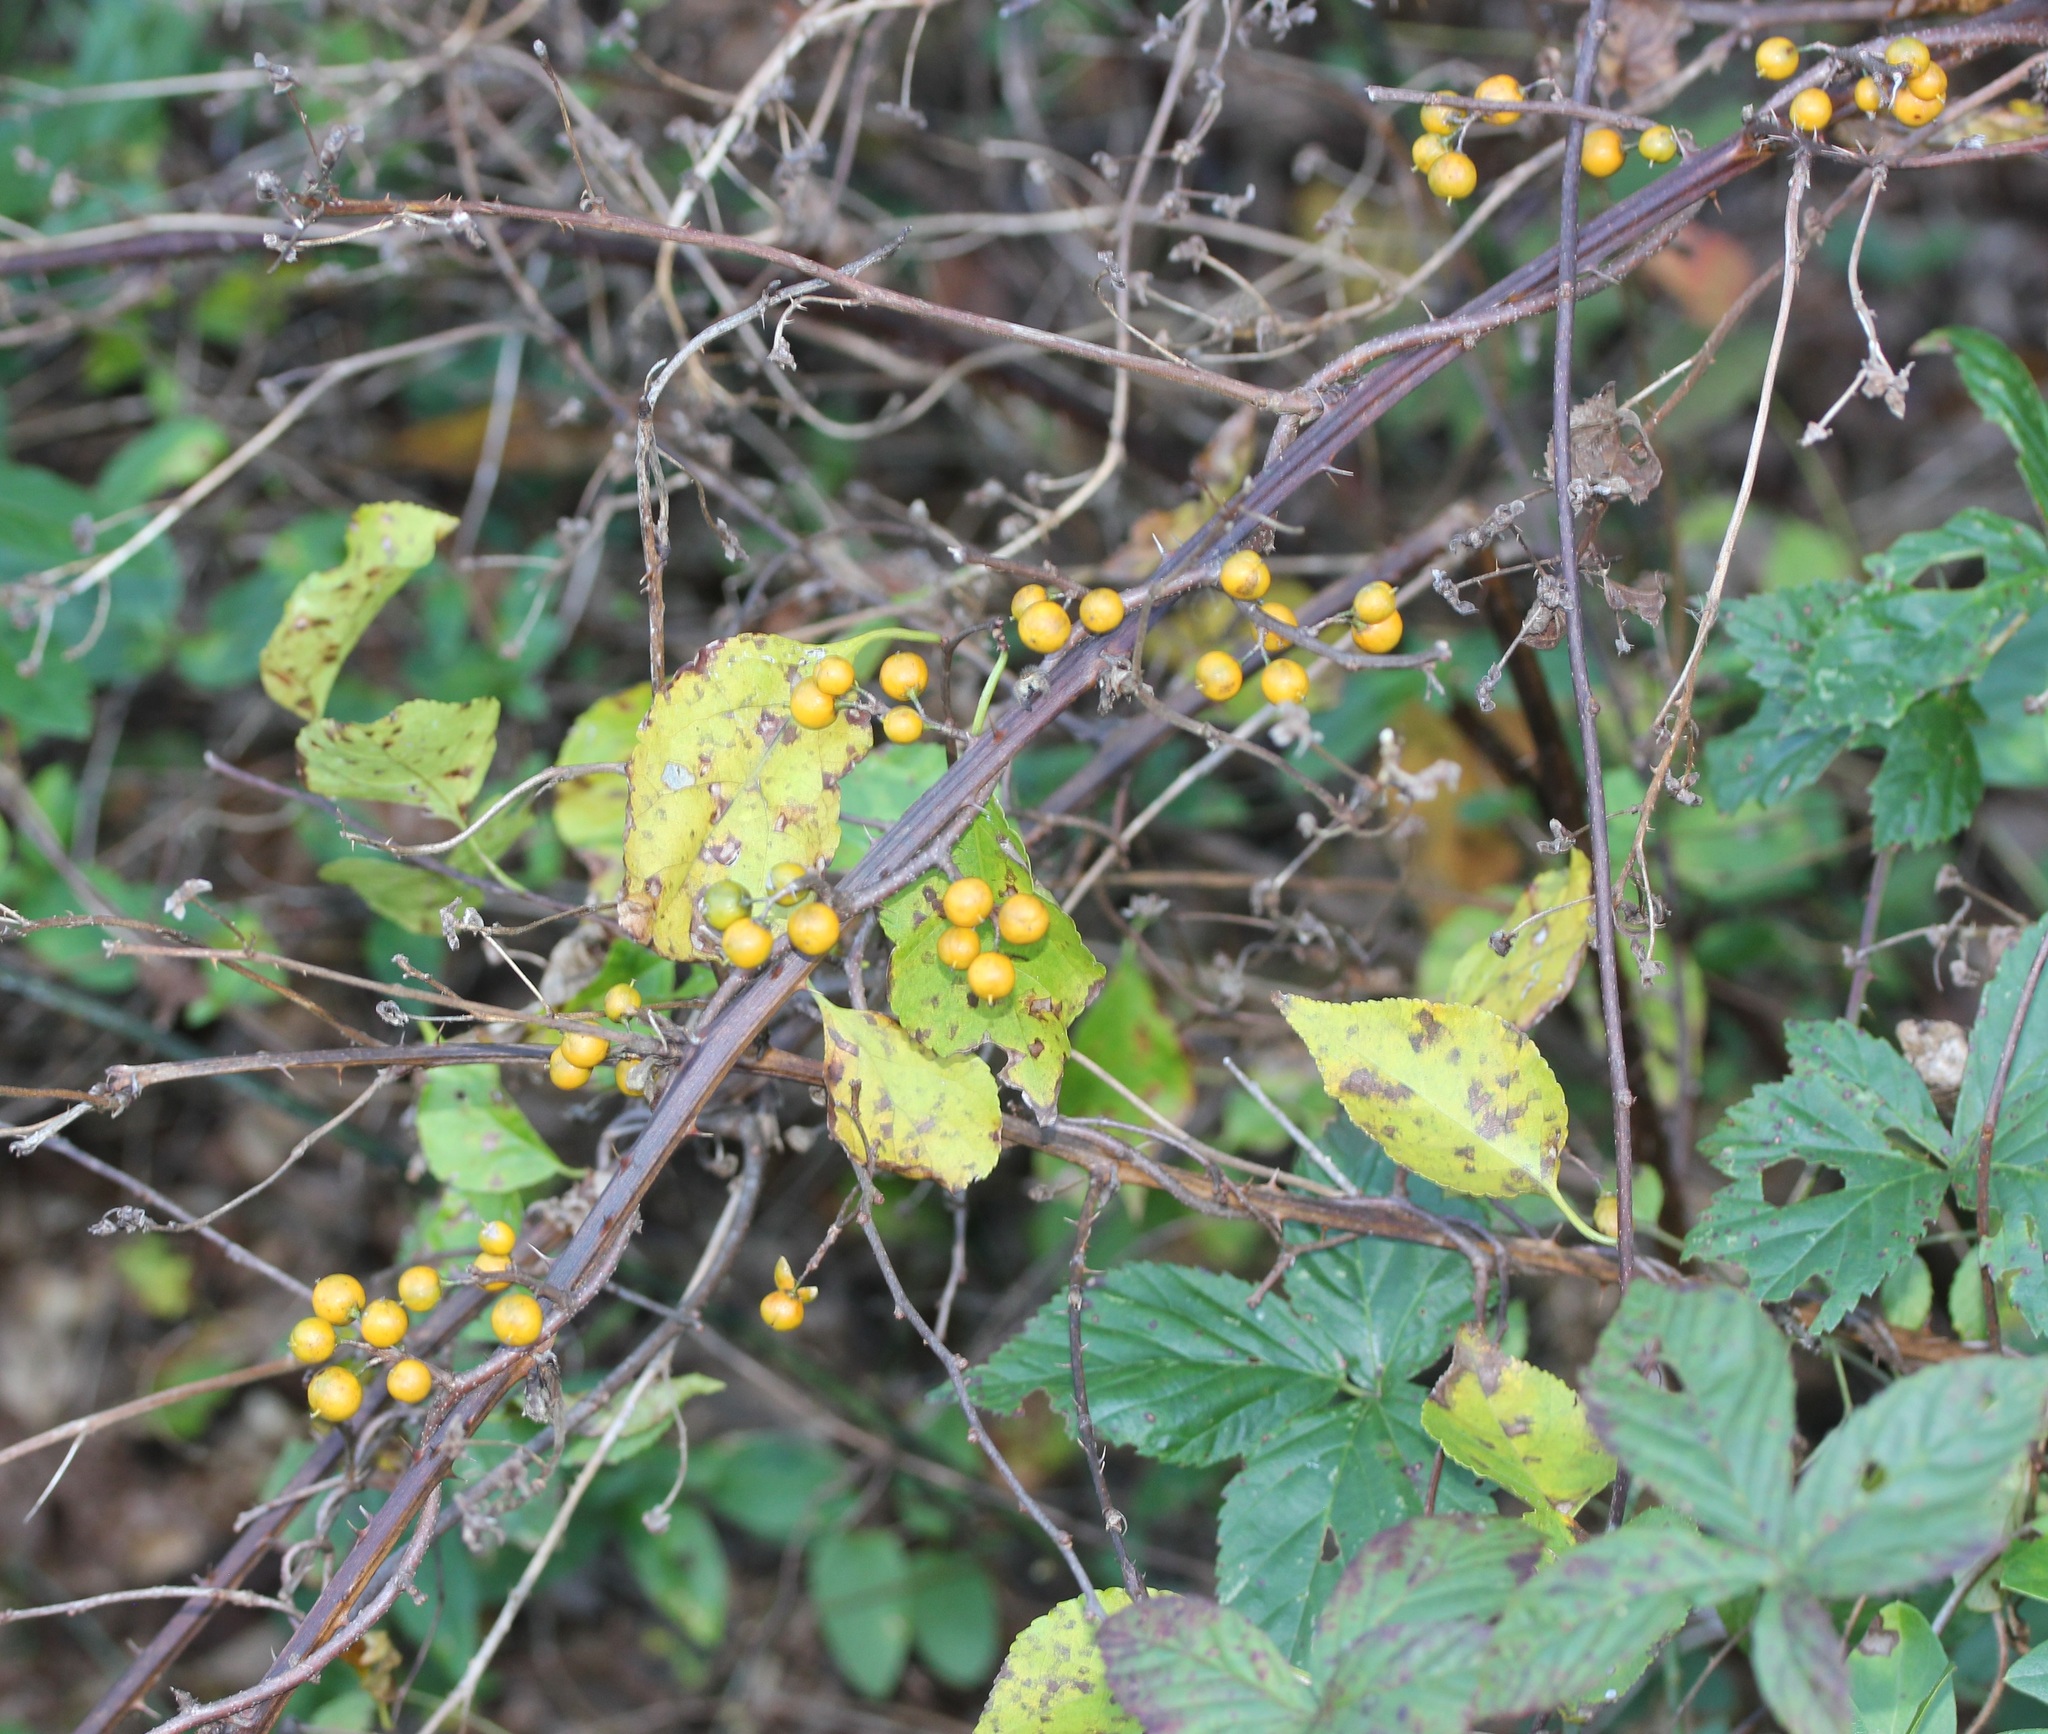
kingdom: Plantae
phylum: Tracheophyta
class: Magnoliopsida
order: Celastrales
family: Celastraceae
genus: Celastrus
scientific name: Celastrus orbiculatus
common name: Oriental bittersweet
